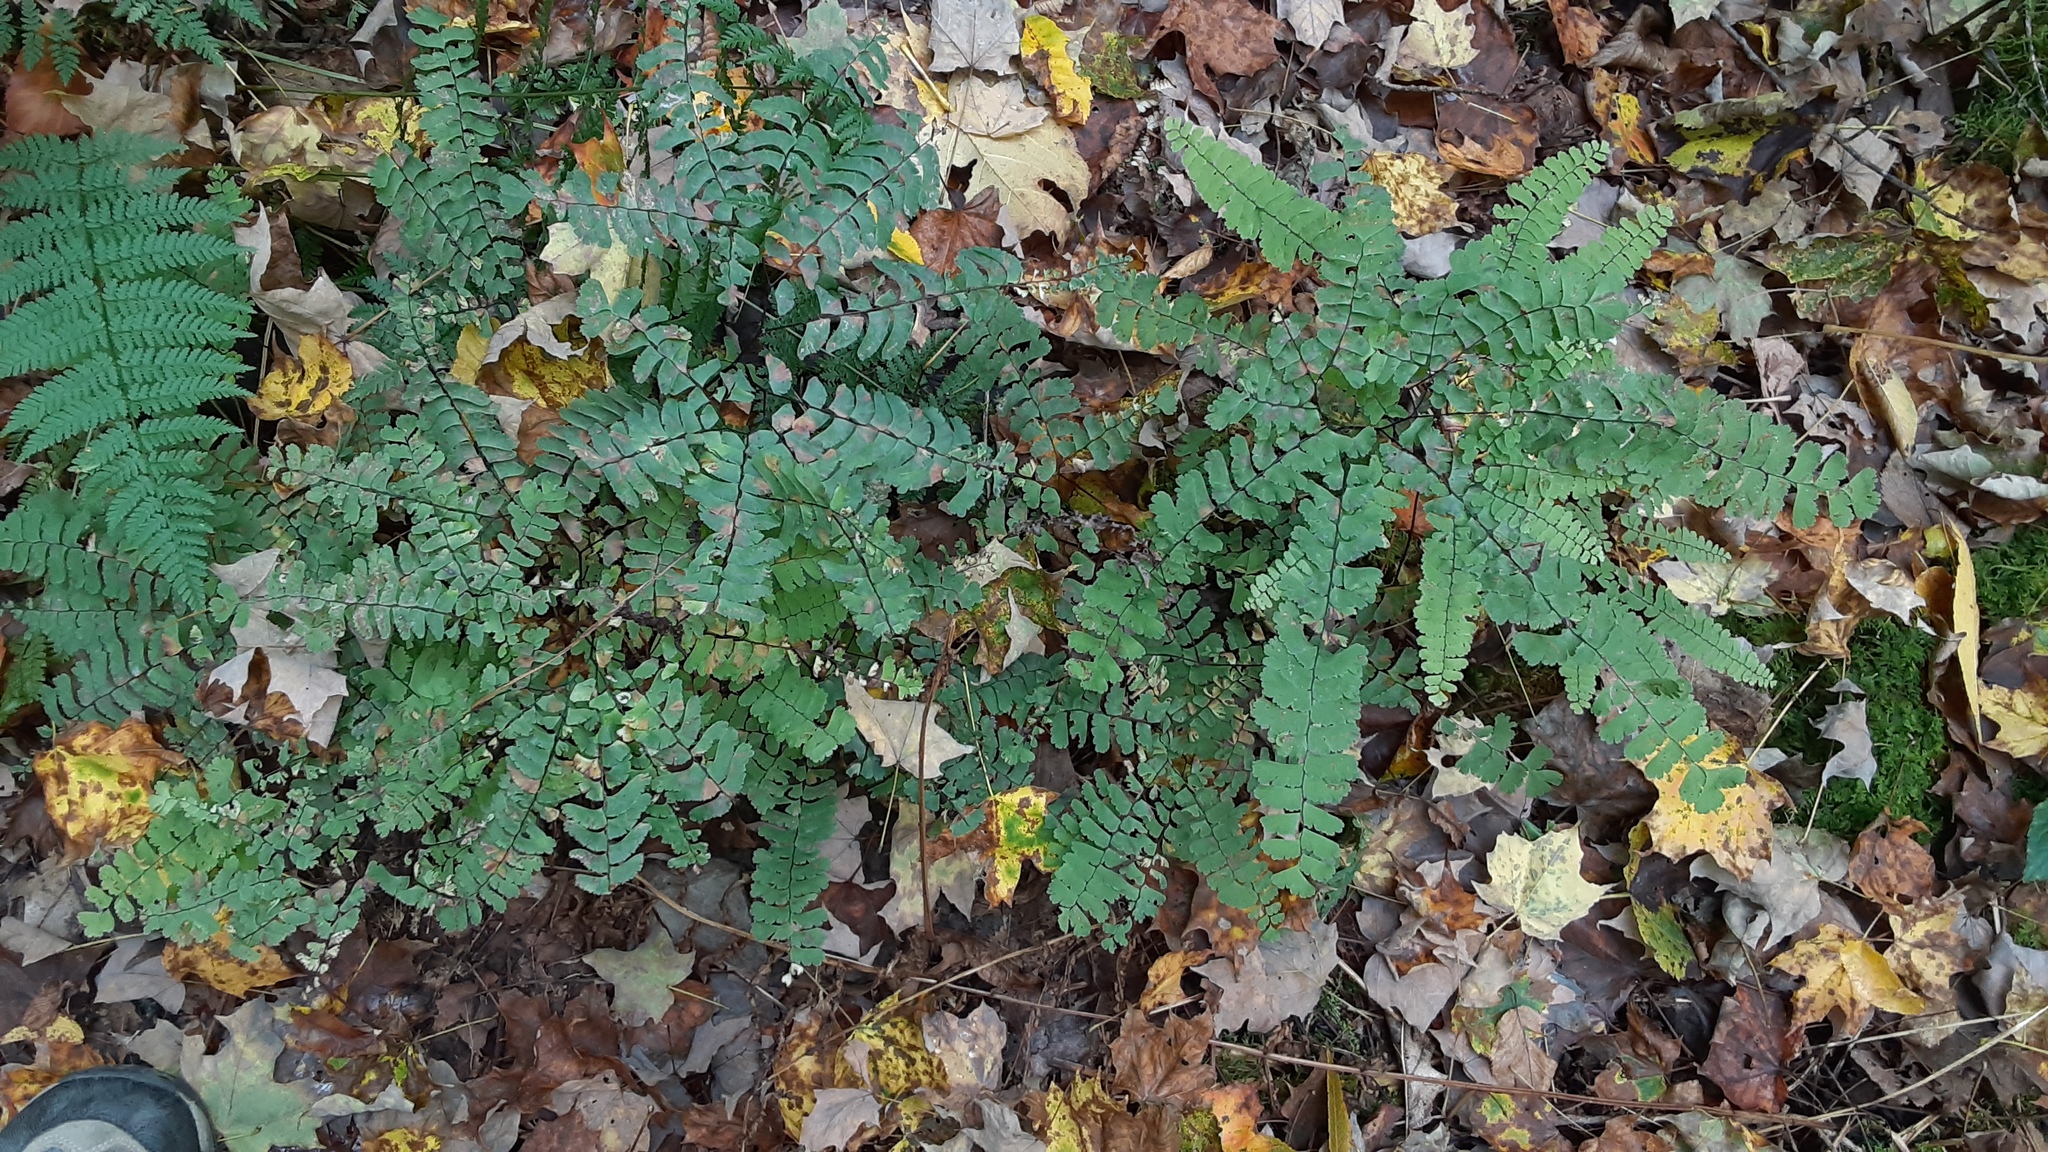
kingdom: Plantae
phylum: Tracheophyta
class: Polypodiopsida
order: Polypodiales
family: Pteridaceae
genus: Adiantum
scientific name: Adiantum pedatum
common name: Five-finger fern
